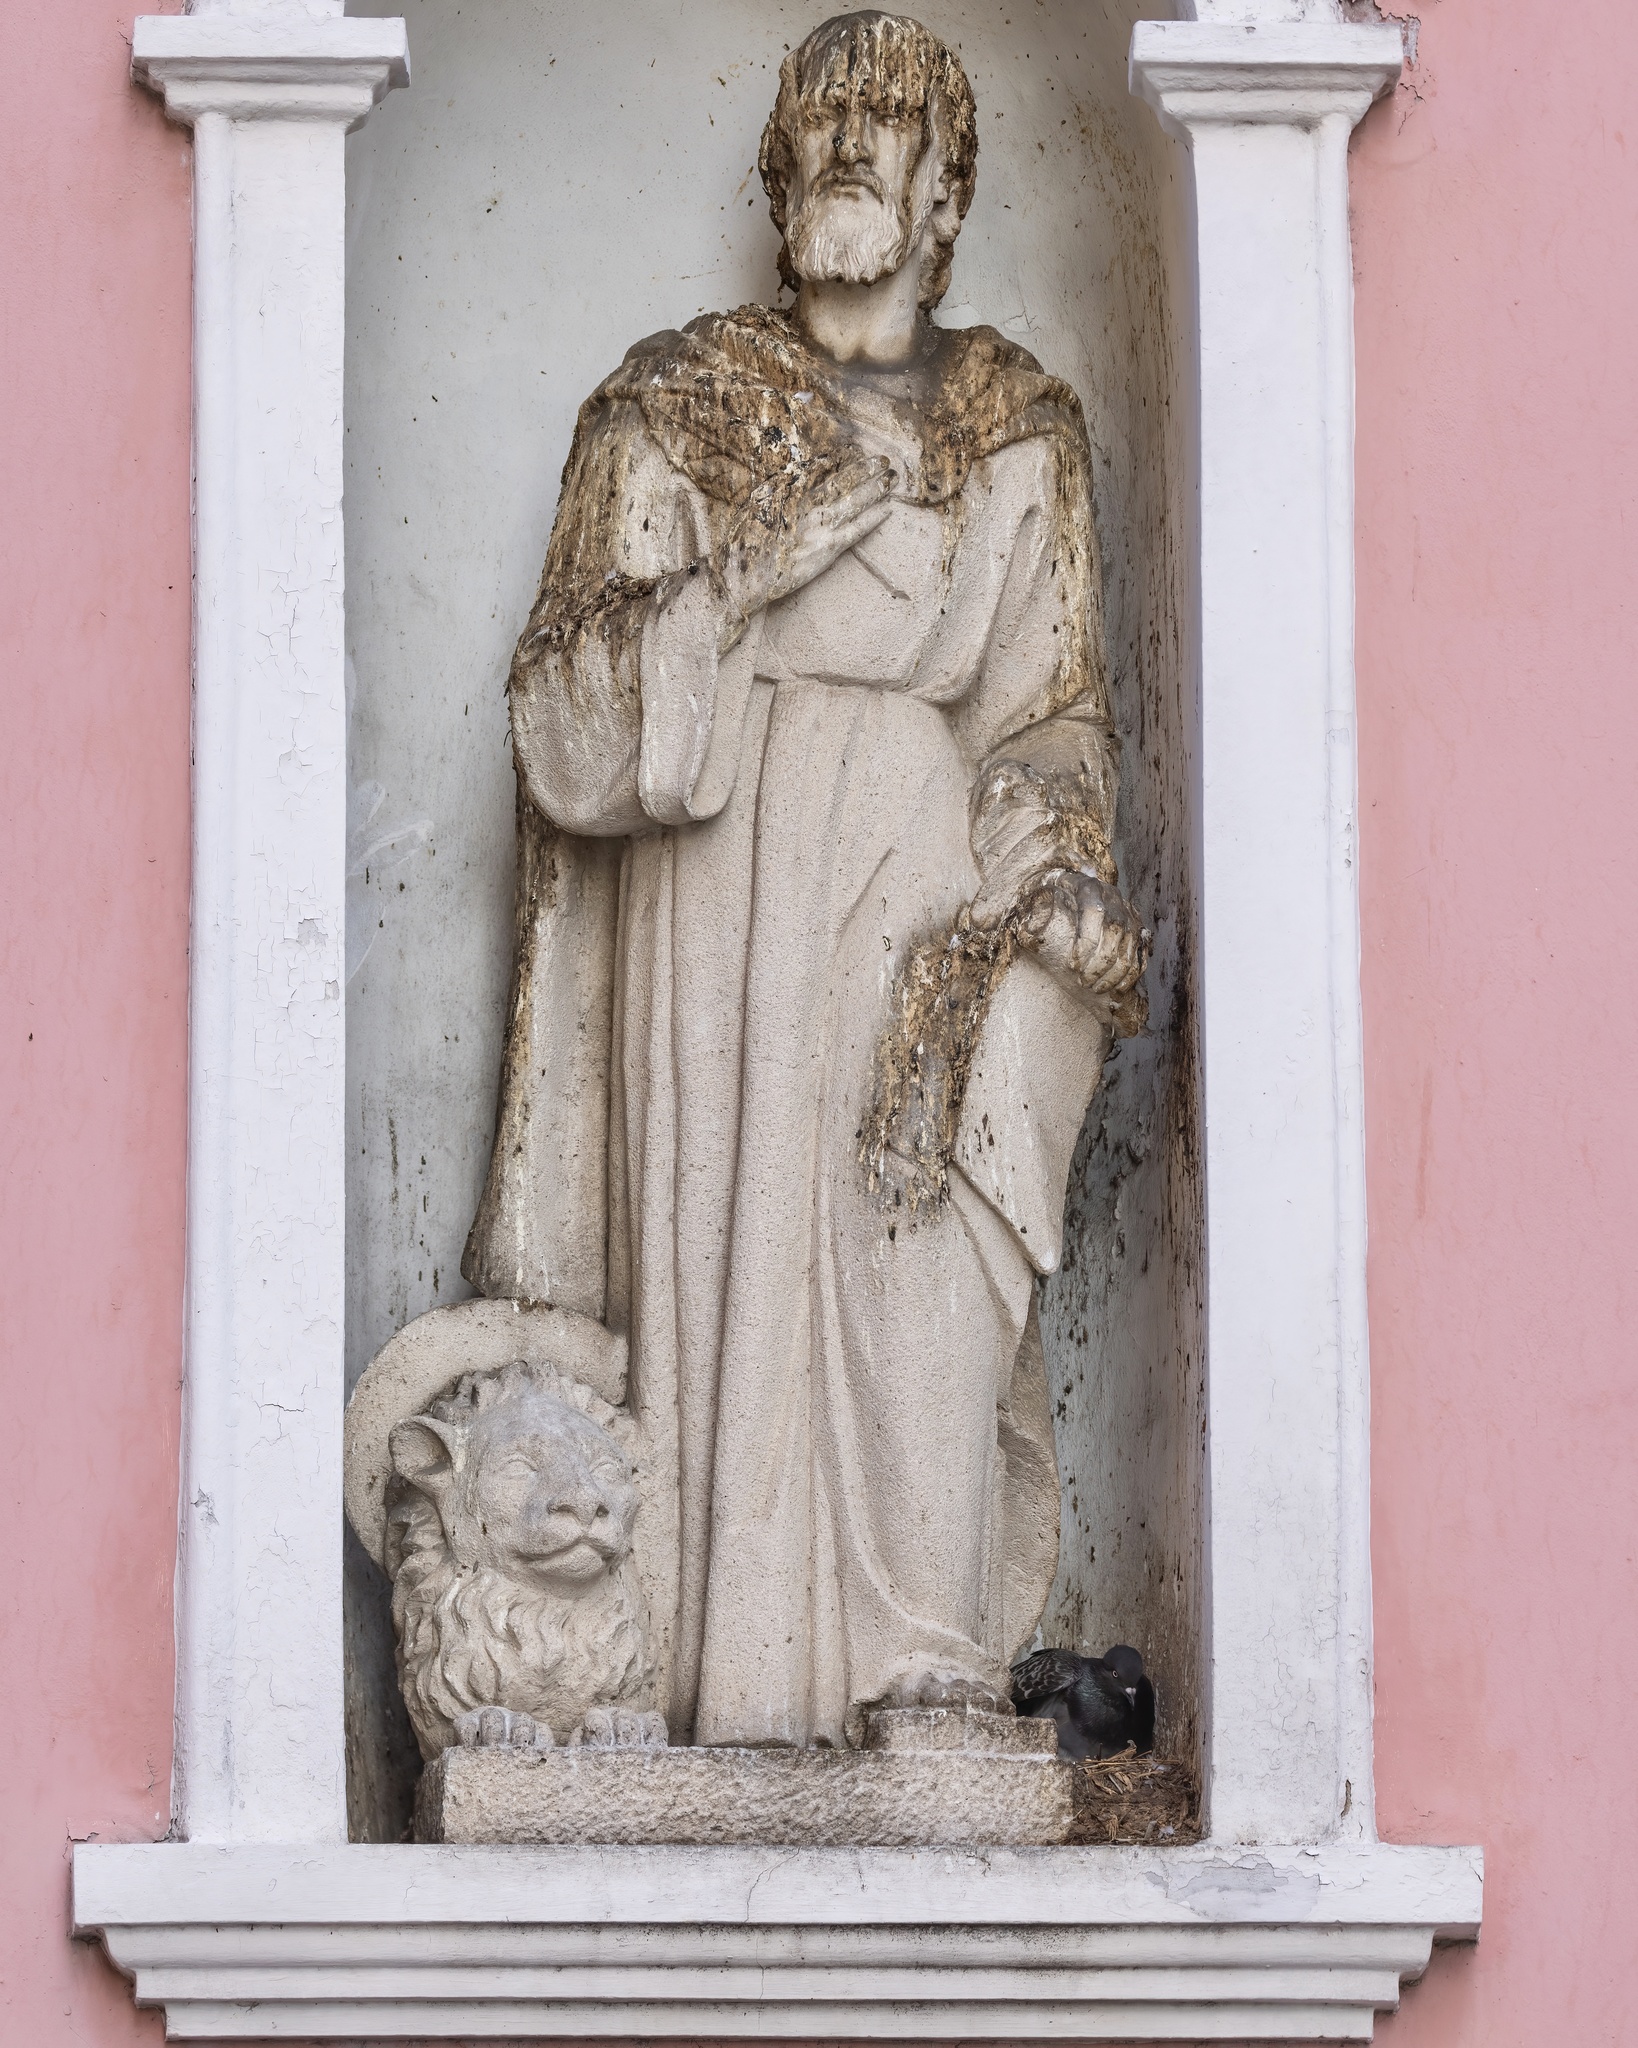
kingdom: Animalia
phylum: Chordata
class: Aves
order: Columbiformes
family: Columbidae
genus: Columba
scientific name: Columba livia
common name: Rock pigeon
